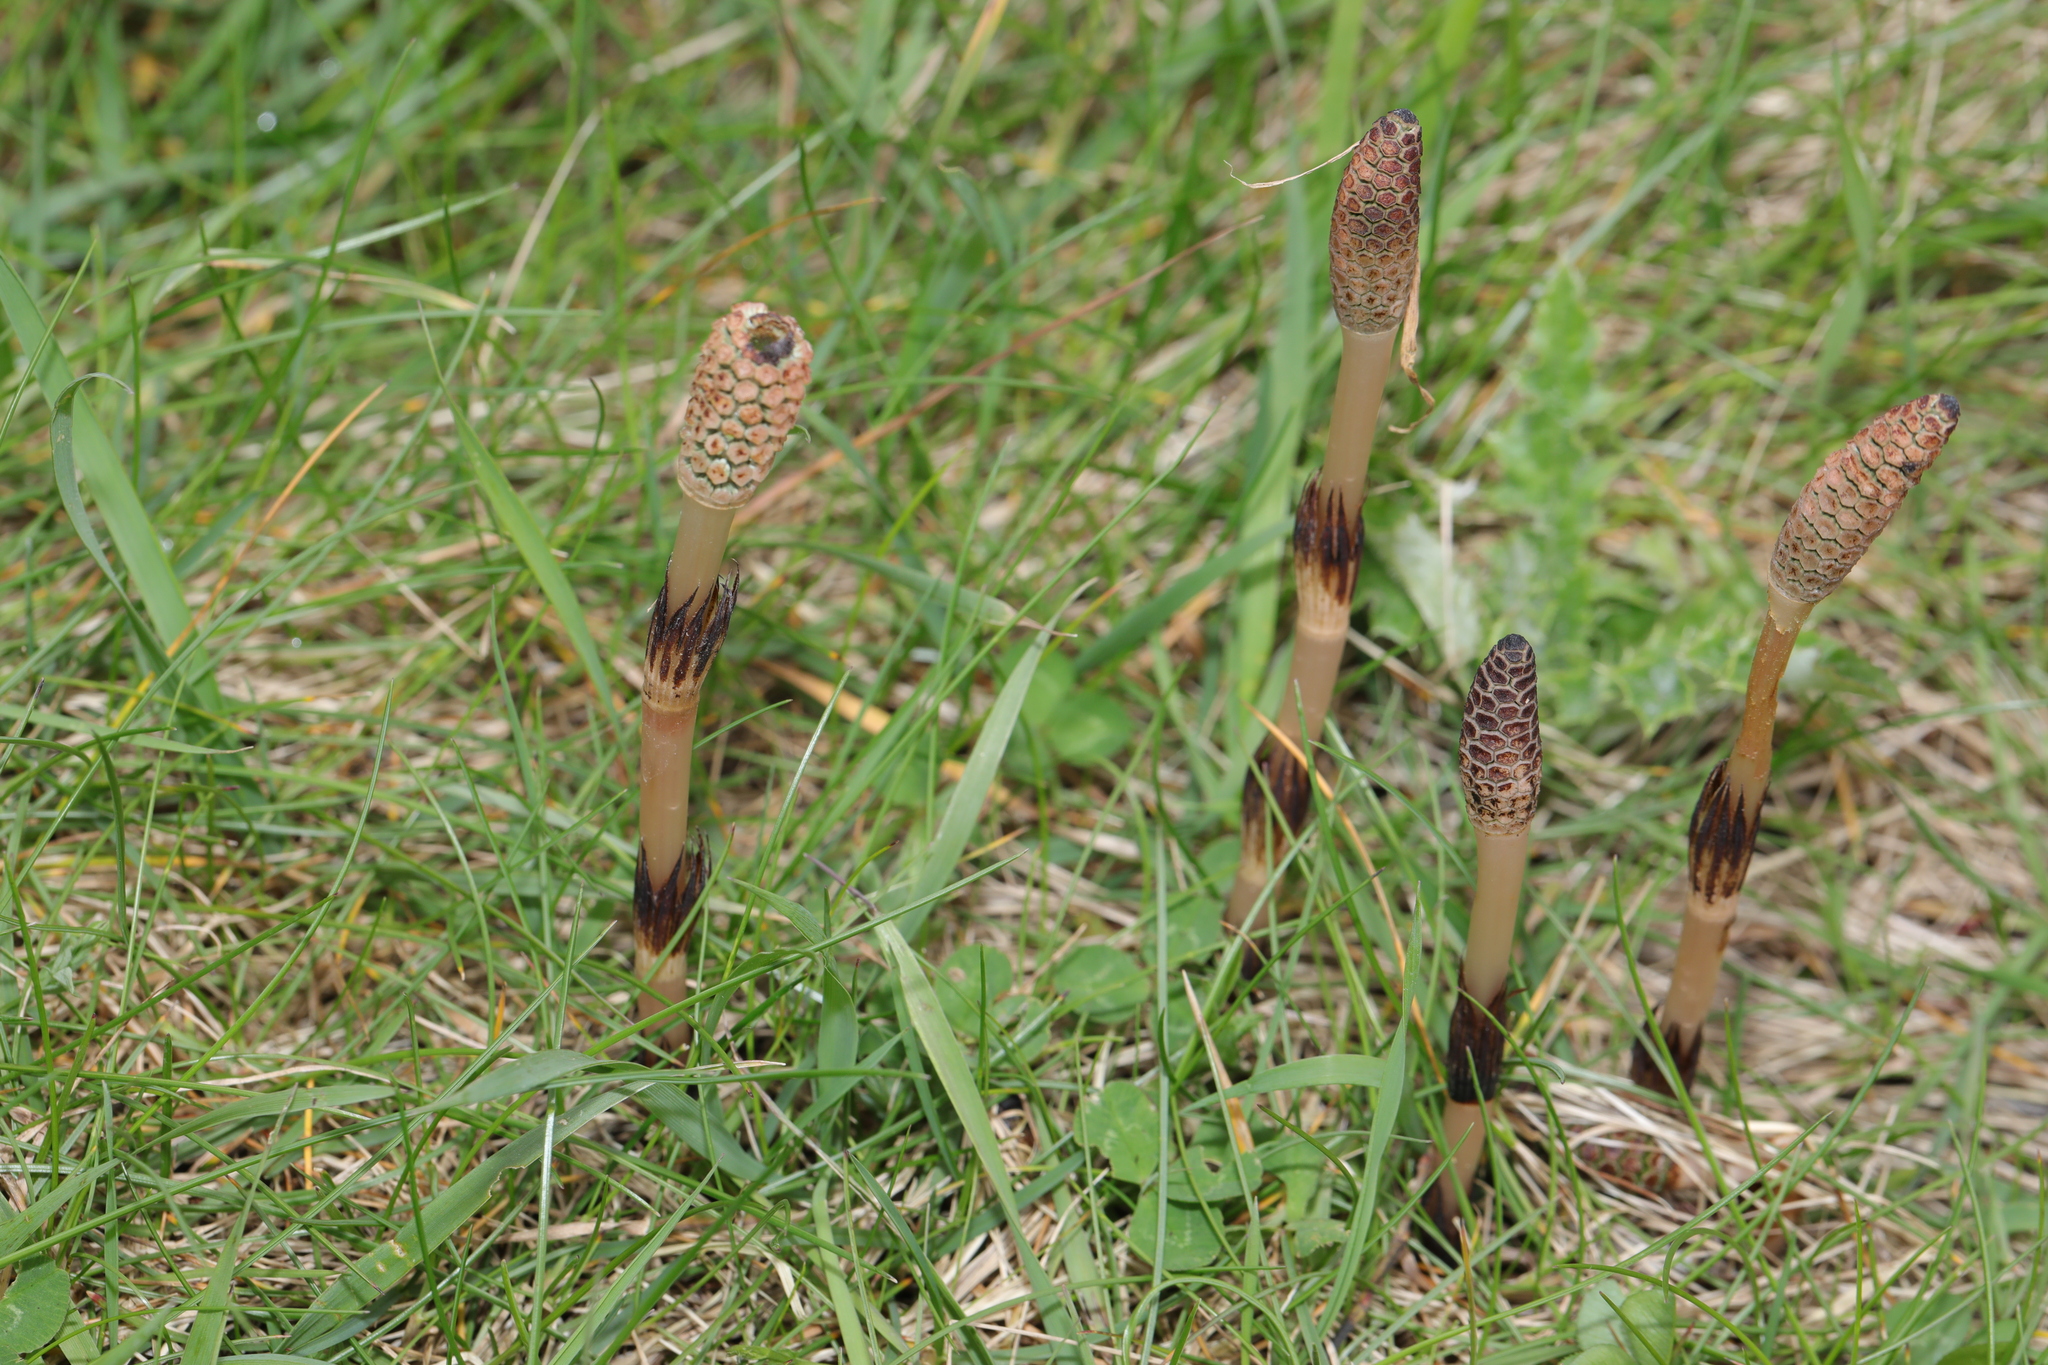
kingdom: Plantae
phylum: Tracheophyta
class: Polypodiopsida
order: Equisetales
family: Equisetaceae
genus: Equisetum
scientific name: Equisetum arvense
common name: Field horsetail
